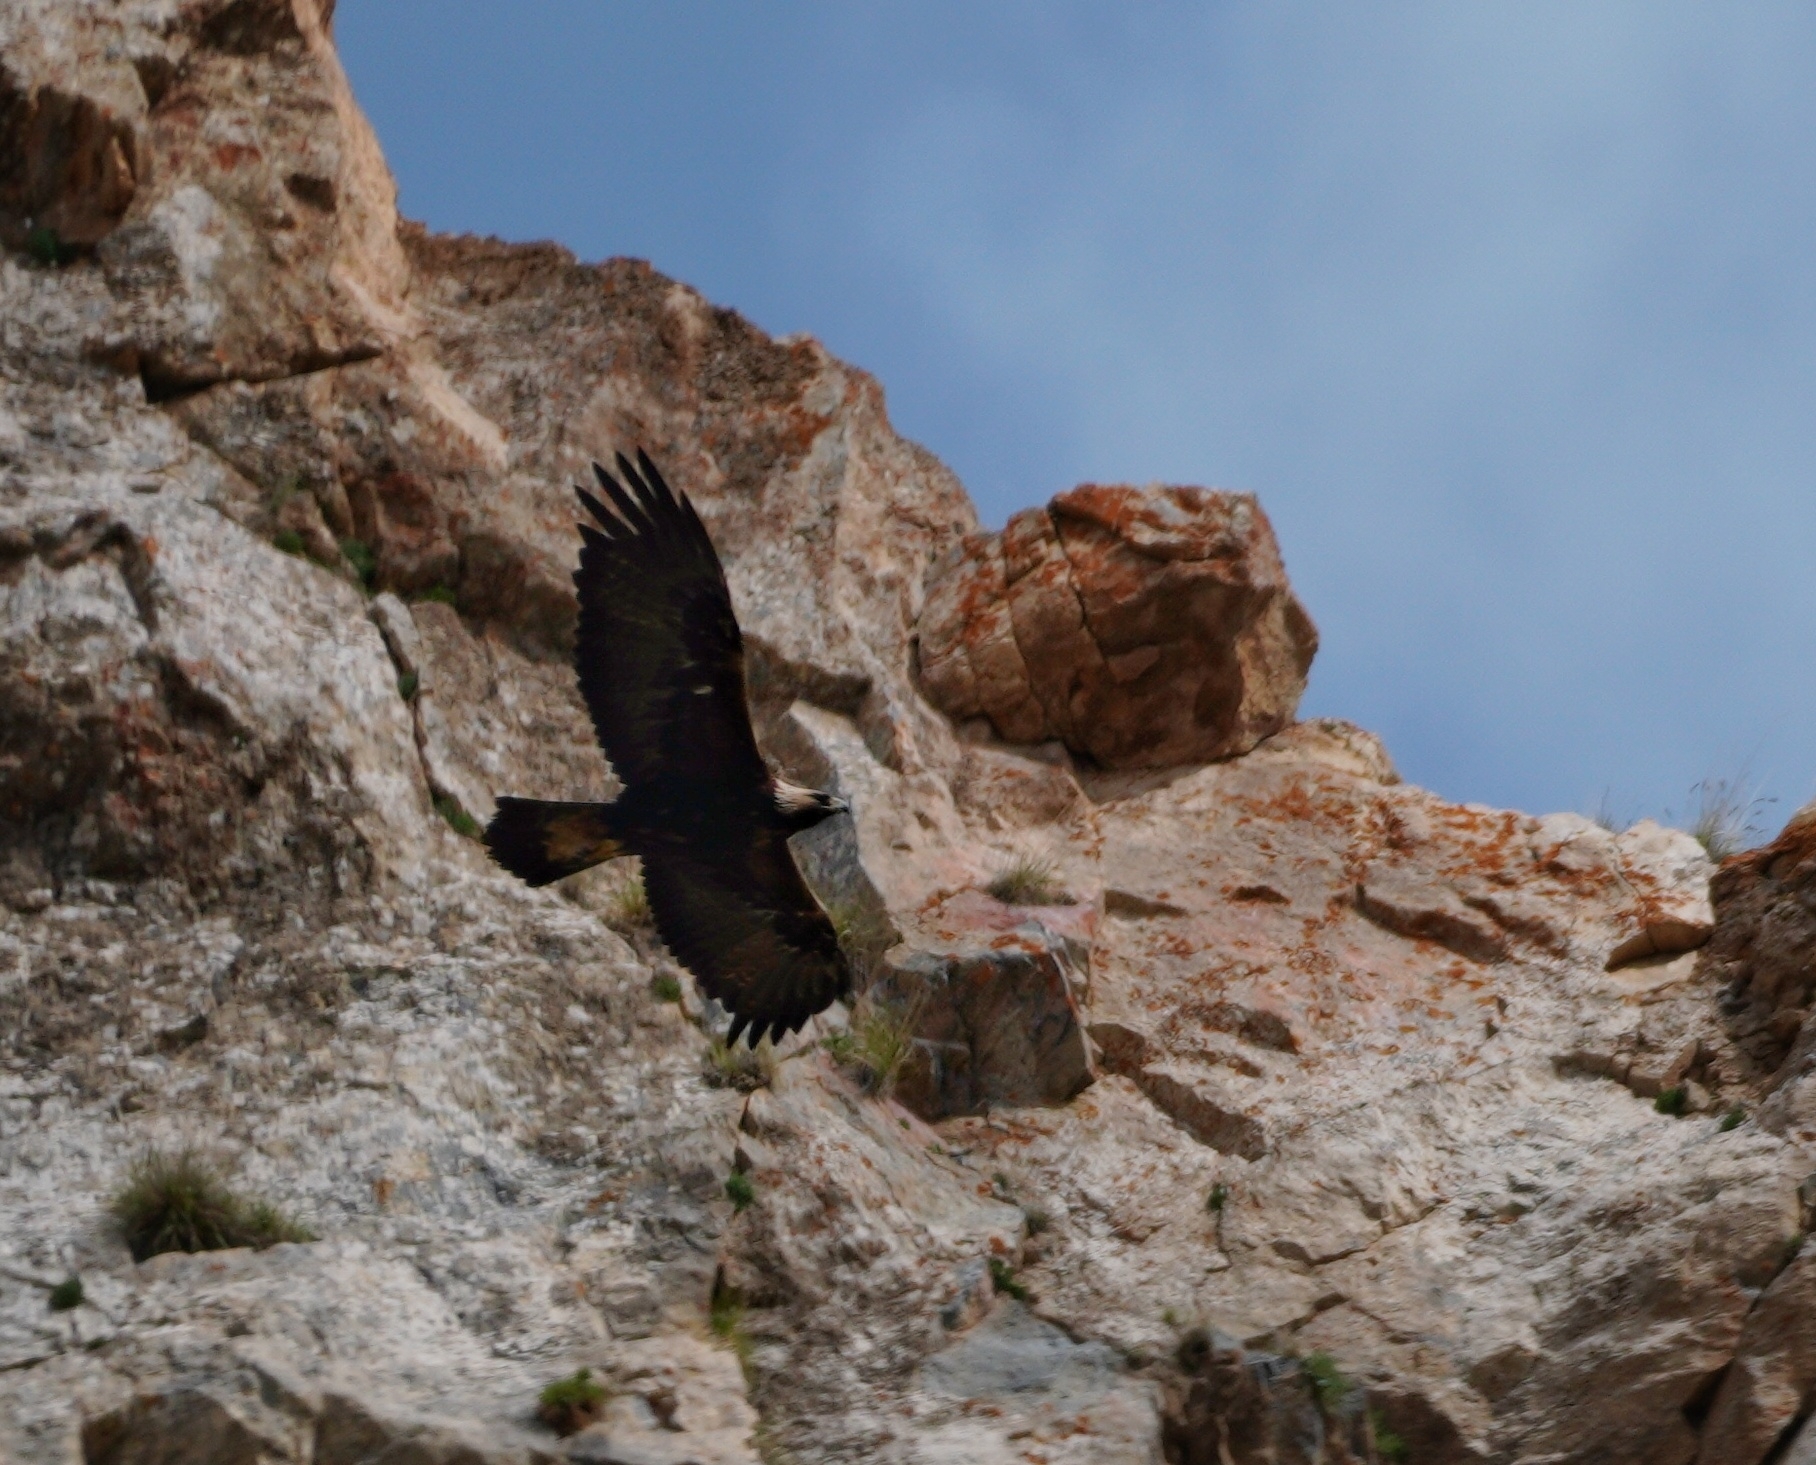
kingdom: Animalia
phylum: Chordata
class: Aves
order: Accipitriformes
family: Accipitridae
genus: Aquila
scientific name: Aquila chrysaetos
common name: Golden eagle
